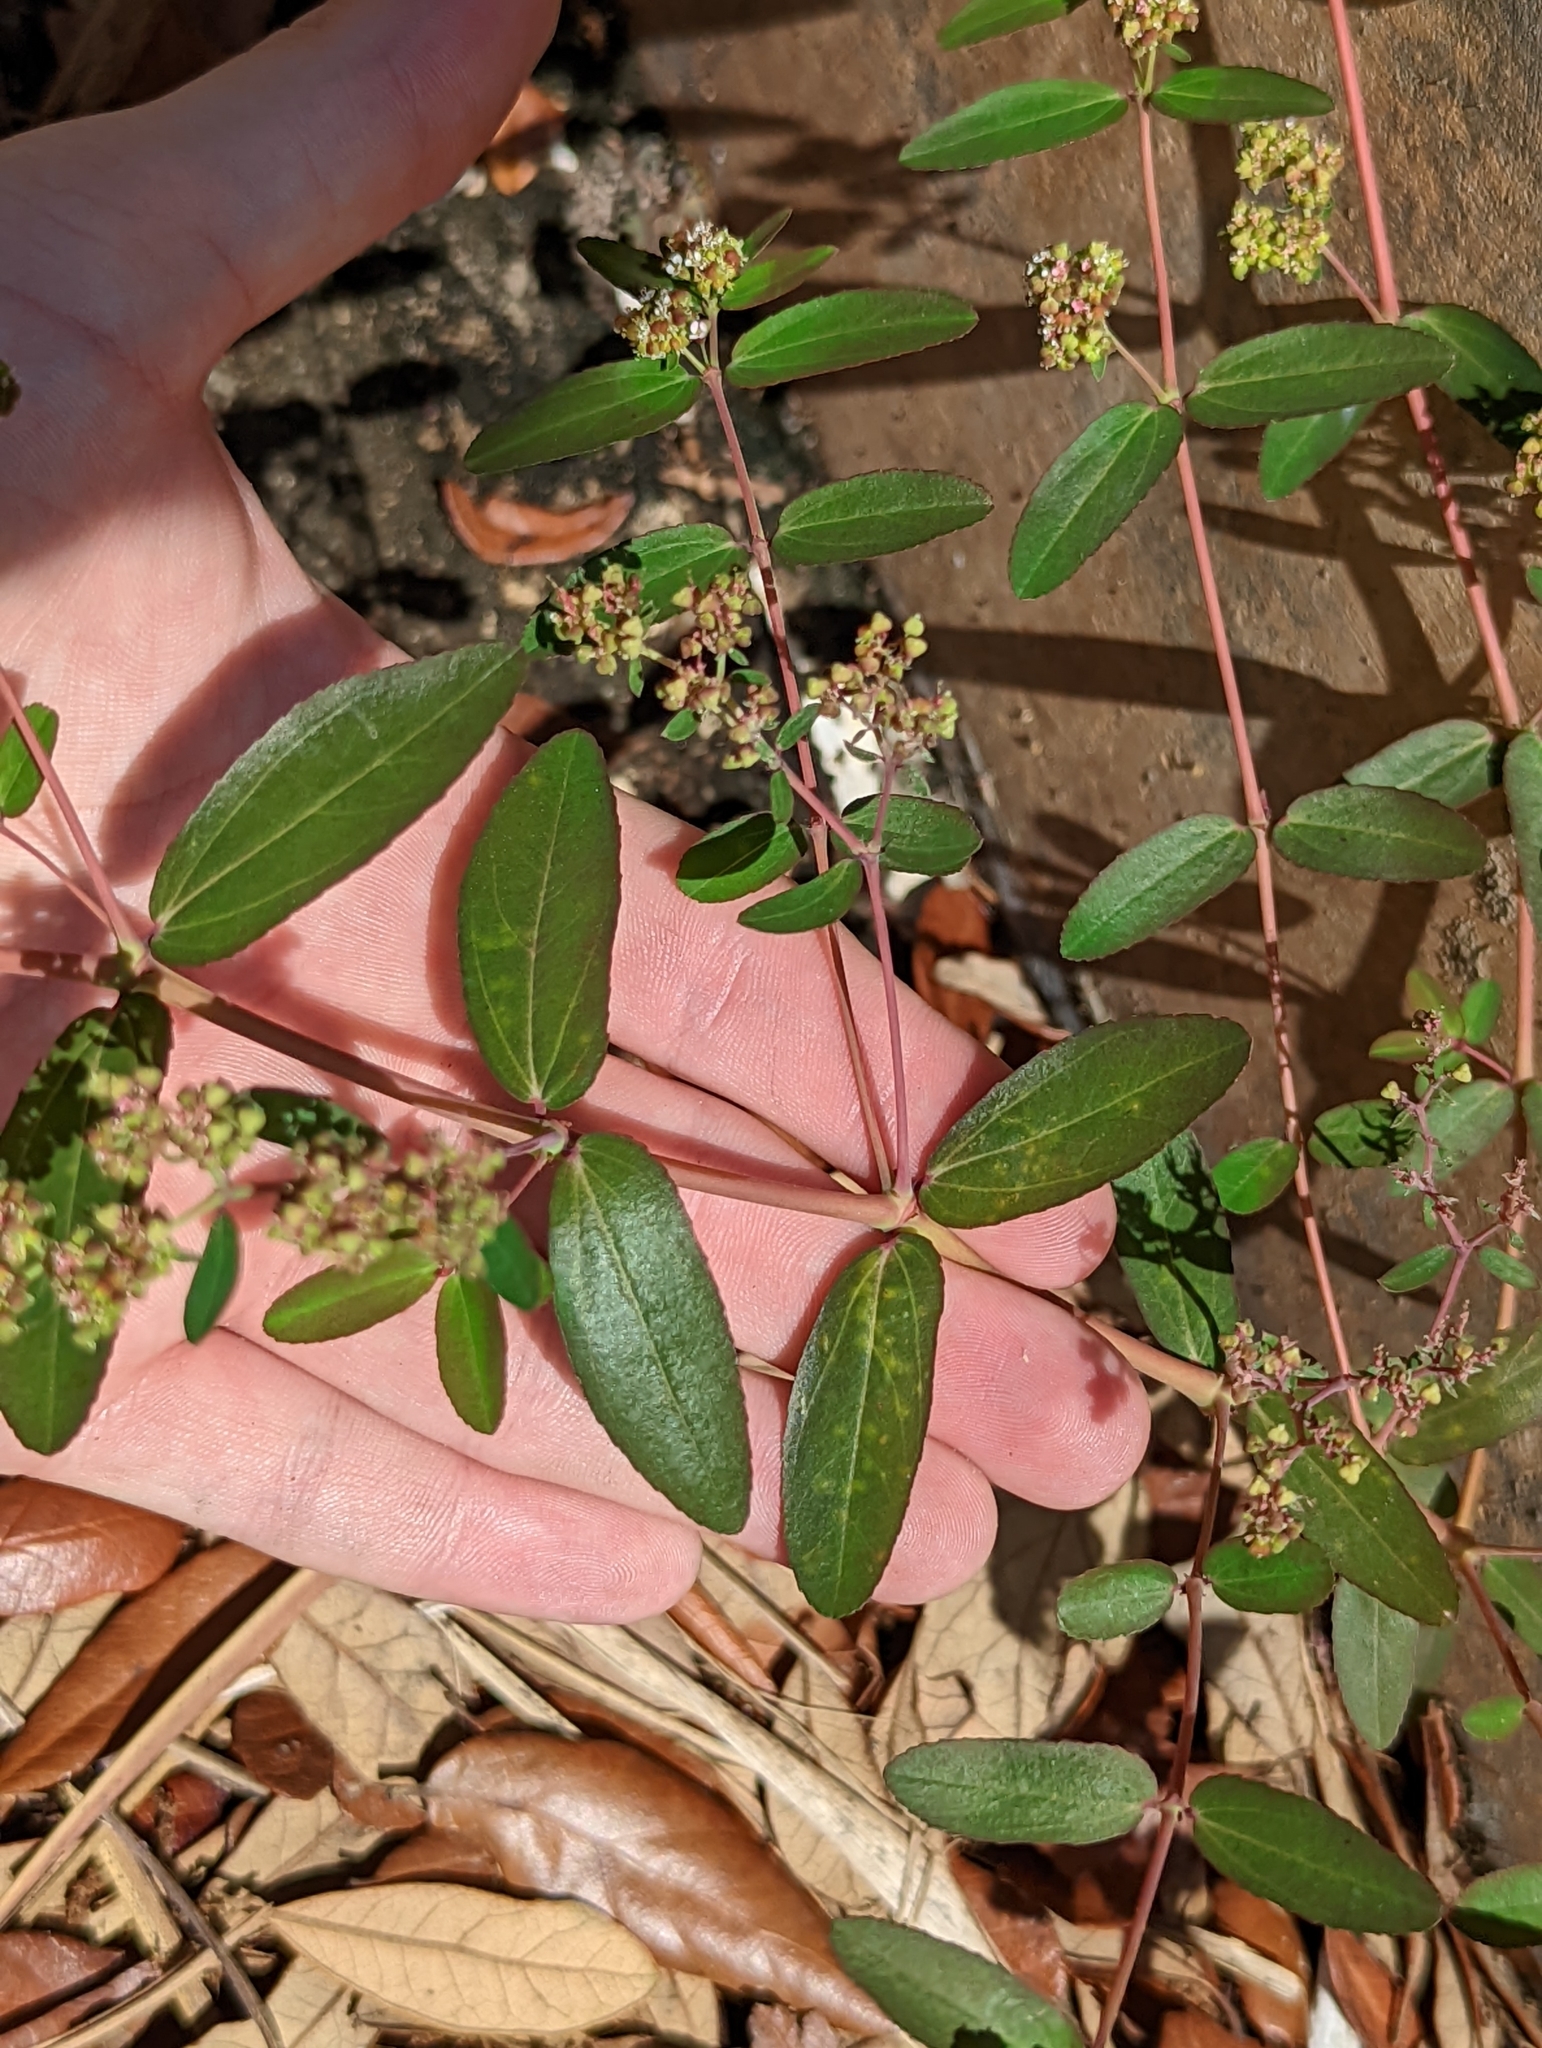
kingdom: Plantae
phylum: Tracheophyta
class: Magnoliopsida
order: Malpighiales
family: Euphorbiaceae
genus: Euphorbia
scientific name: Euphorbia hypericifolia
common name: Graceful sandmat
